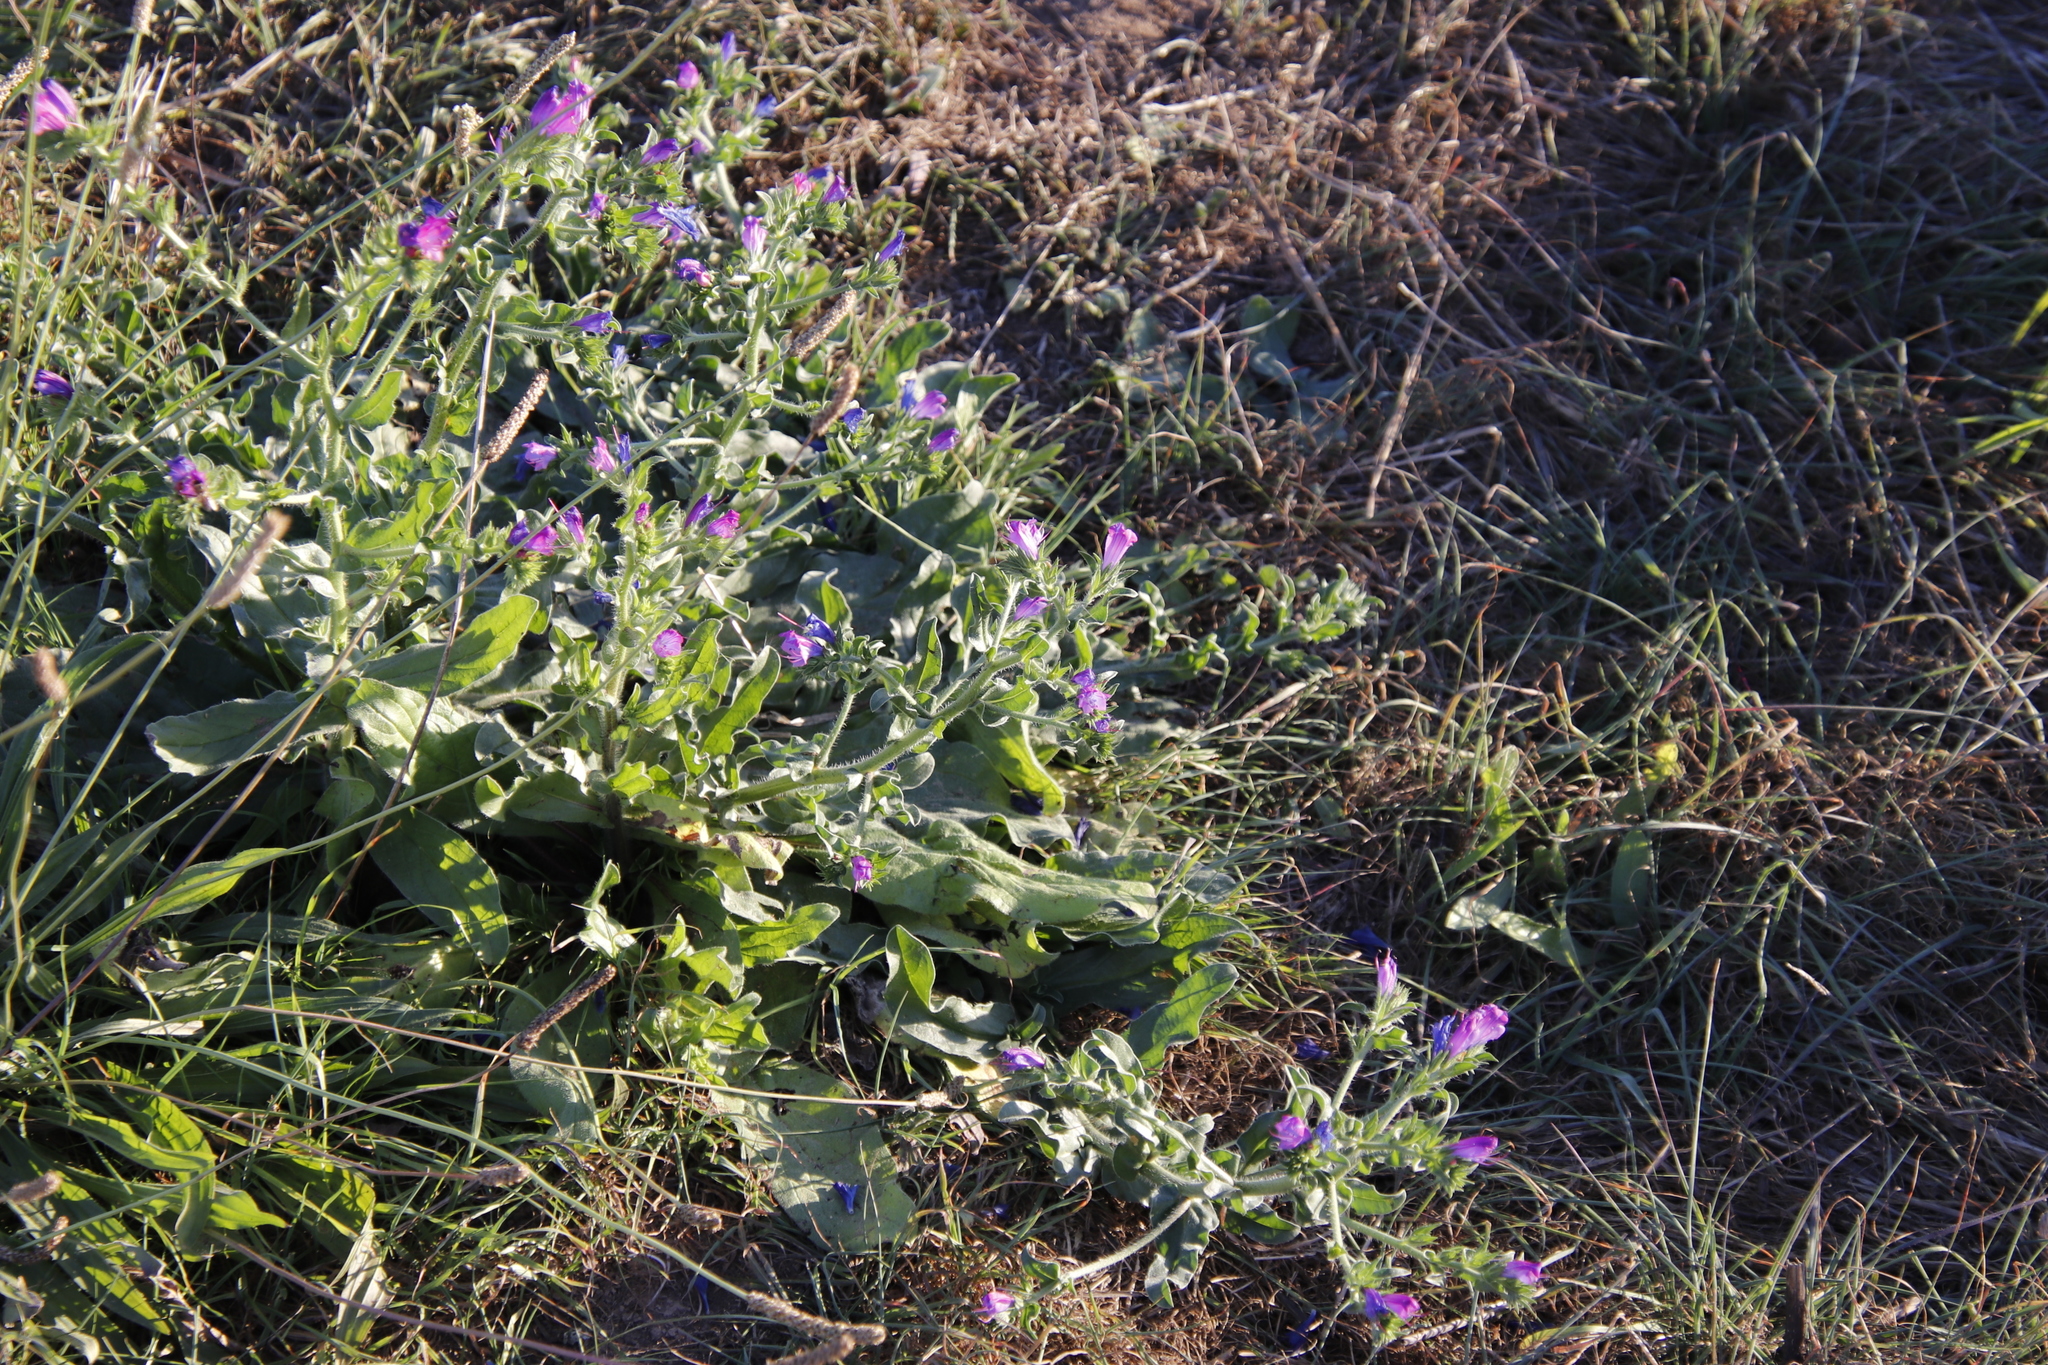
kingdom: Plantae
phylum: Tracheophyta
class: Magnoliopsida
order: Boraginales
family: Boraginaceae
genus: Echium
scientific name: Echium plantagineum
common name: Purple viper's-bugloss
